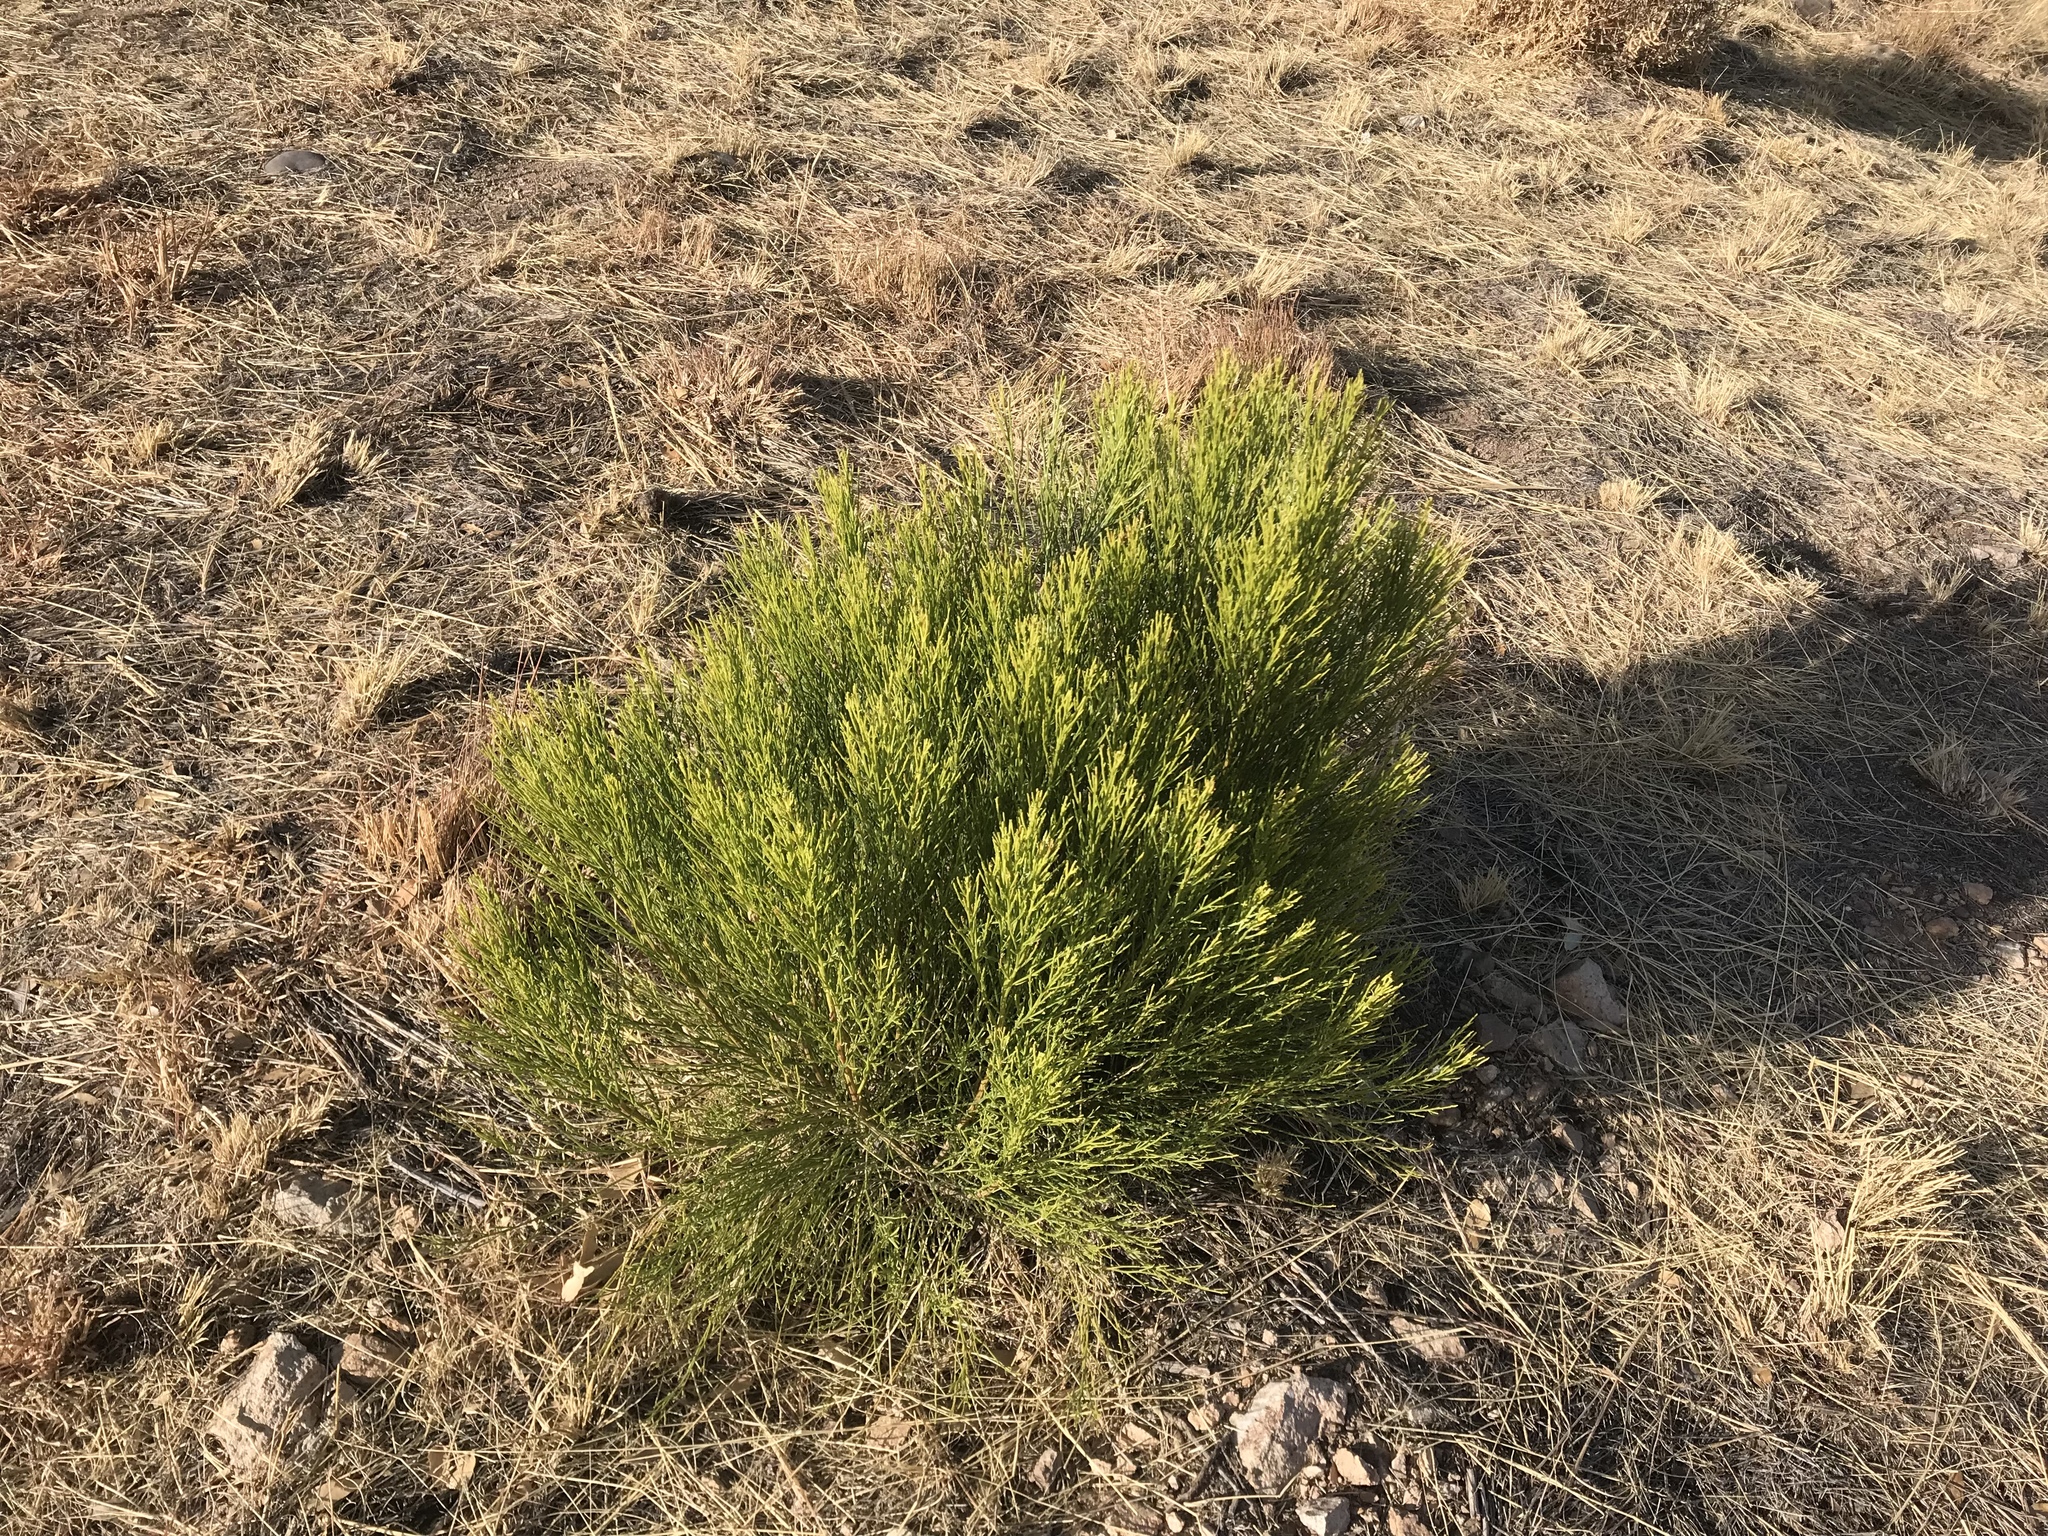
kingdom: Plantae
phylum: Tracheophyta
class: Magnoliopsida
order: Asterales
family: Asteraceae
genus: Baccharis
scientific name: Baccharis sarothroides
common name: Desert-broom
